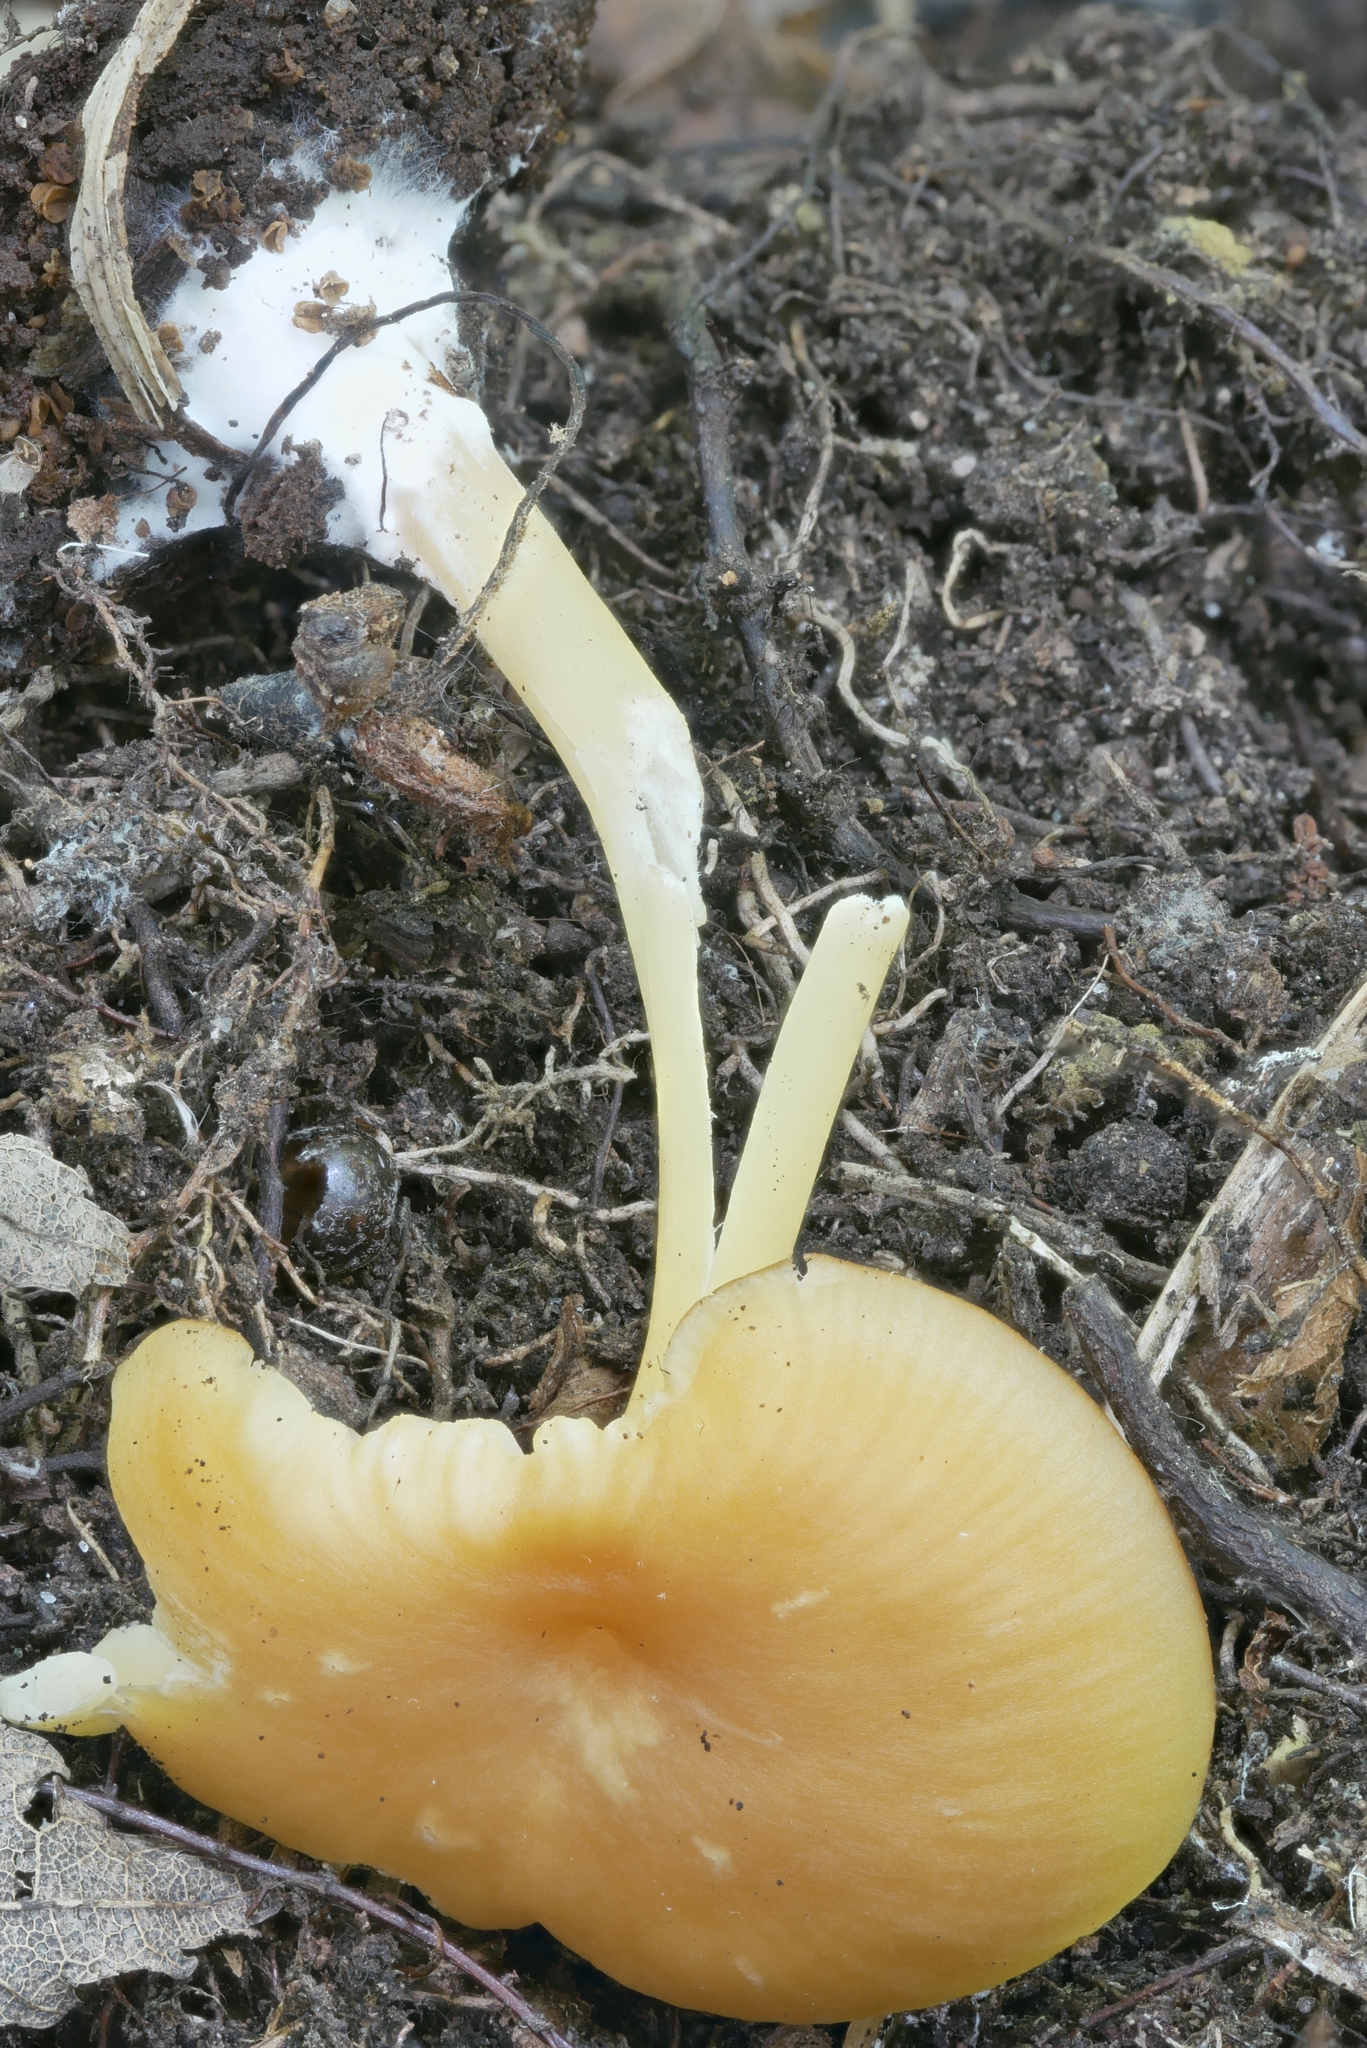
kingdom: Fungi
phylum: Basidiomycota
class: Agaricomycetes
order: Agaricales
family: Entolomataceae
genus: Entoloma
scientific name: Entoloma unicolor
